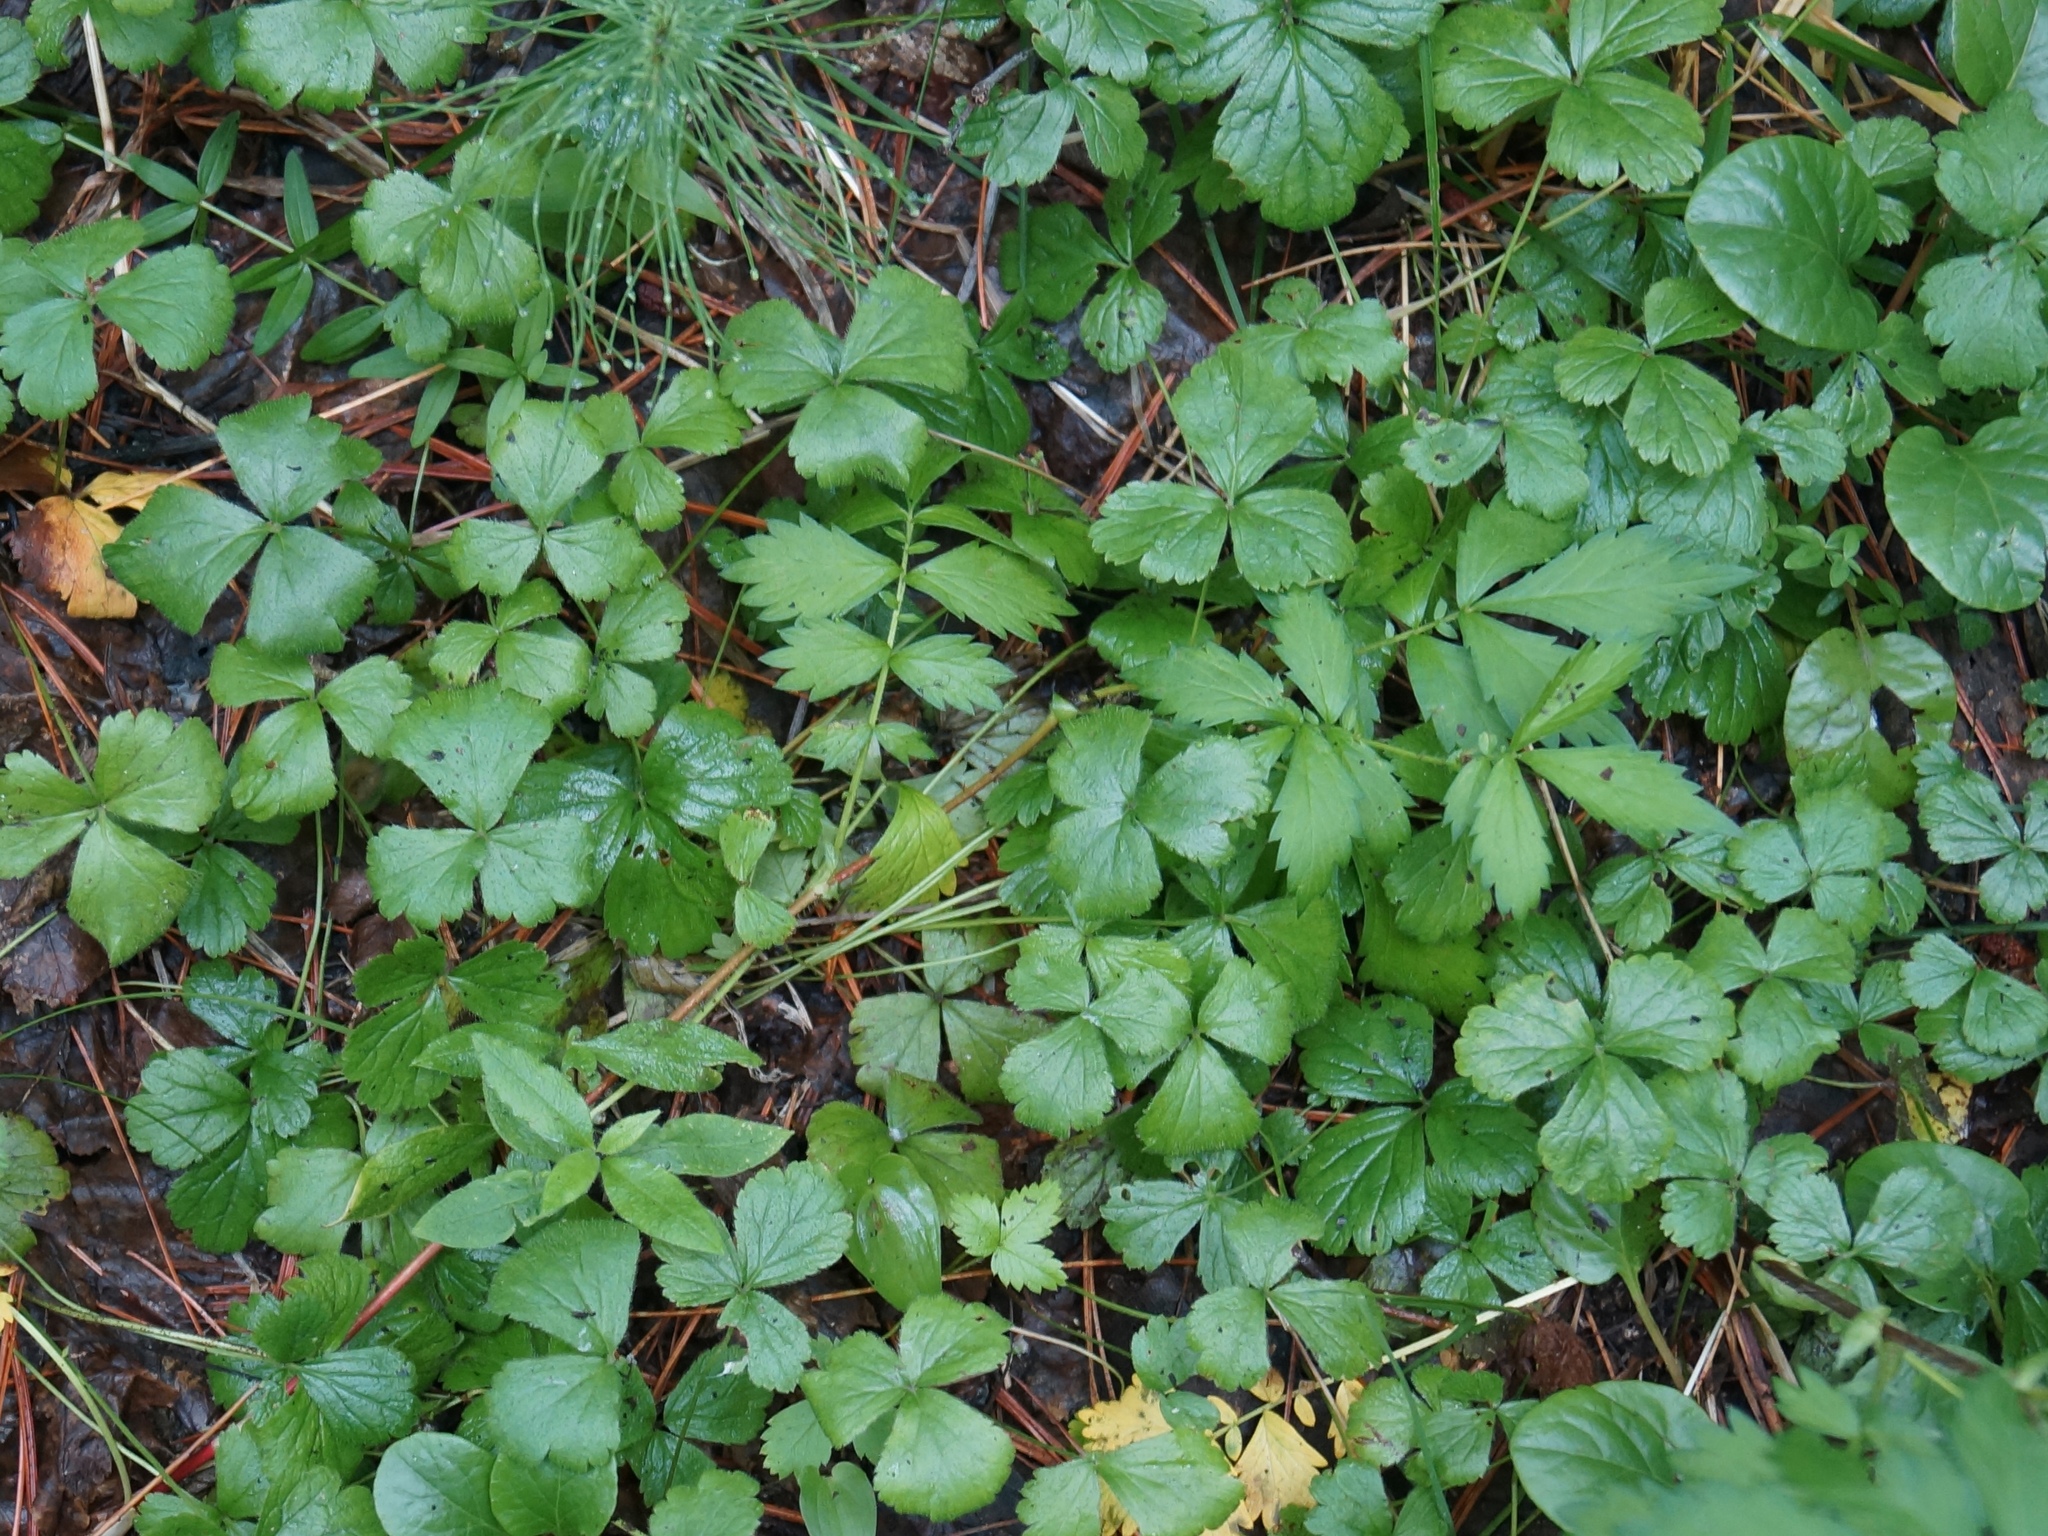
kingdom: Plantae
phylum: Tracheophyta
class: Magnoliopsida
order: Rosales
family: Rosaceae
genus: Geum
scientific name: Geum ternatum
